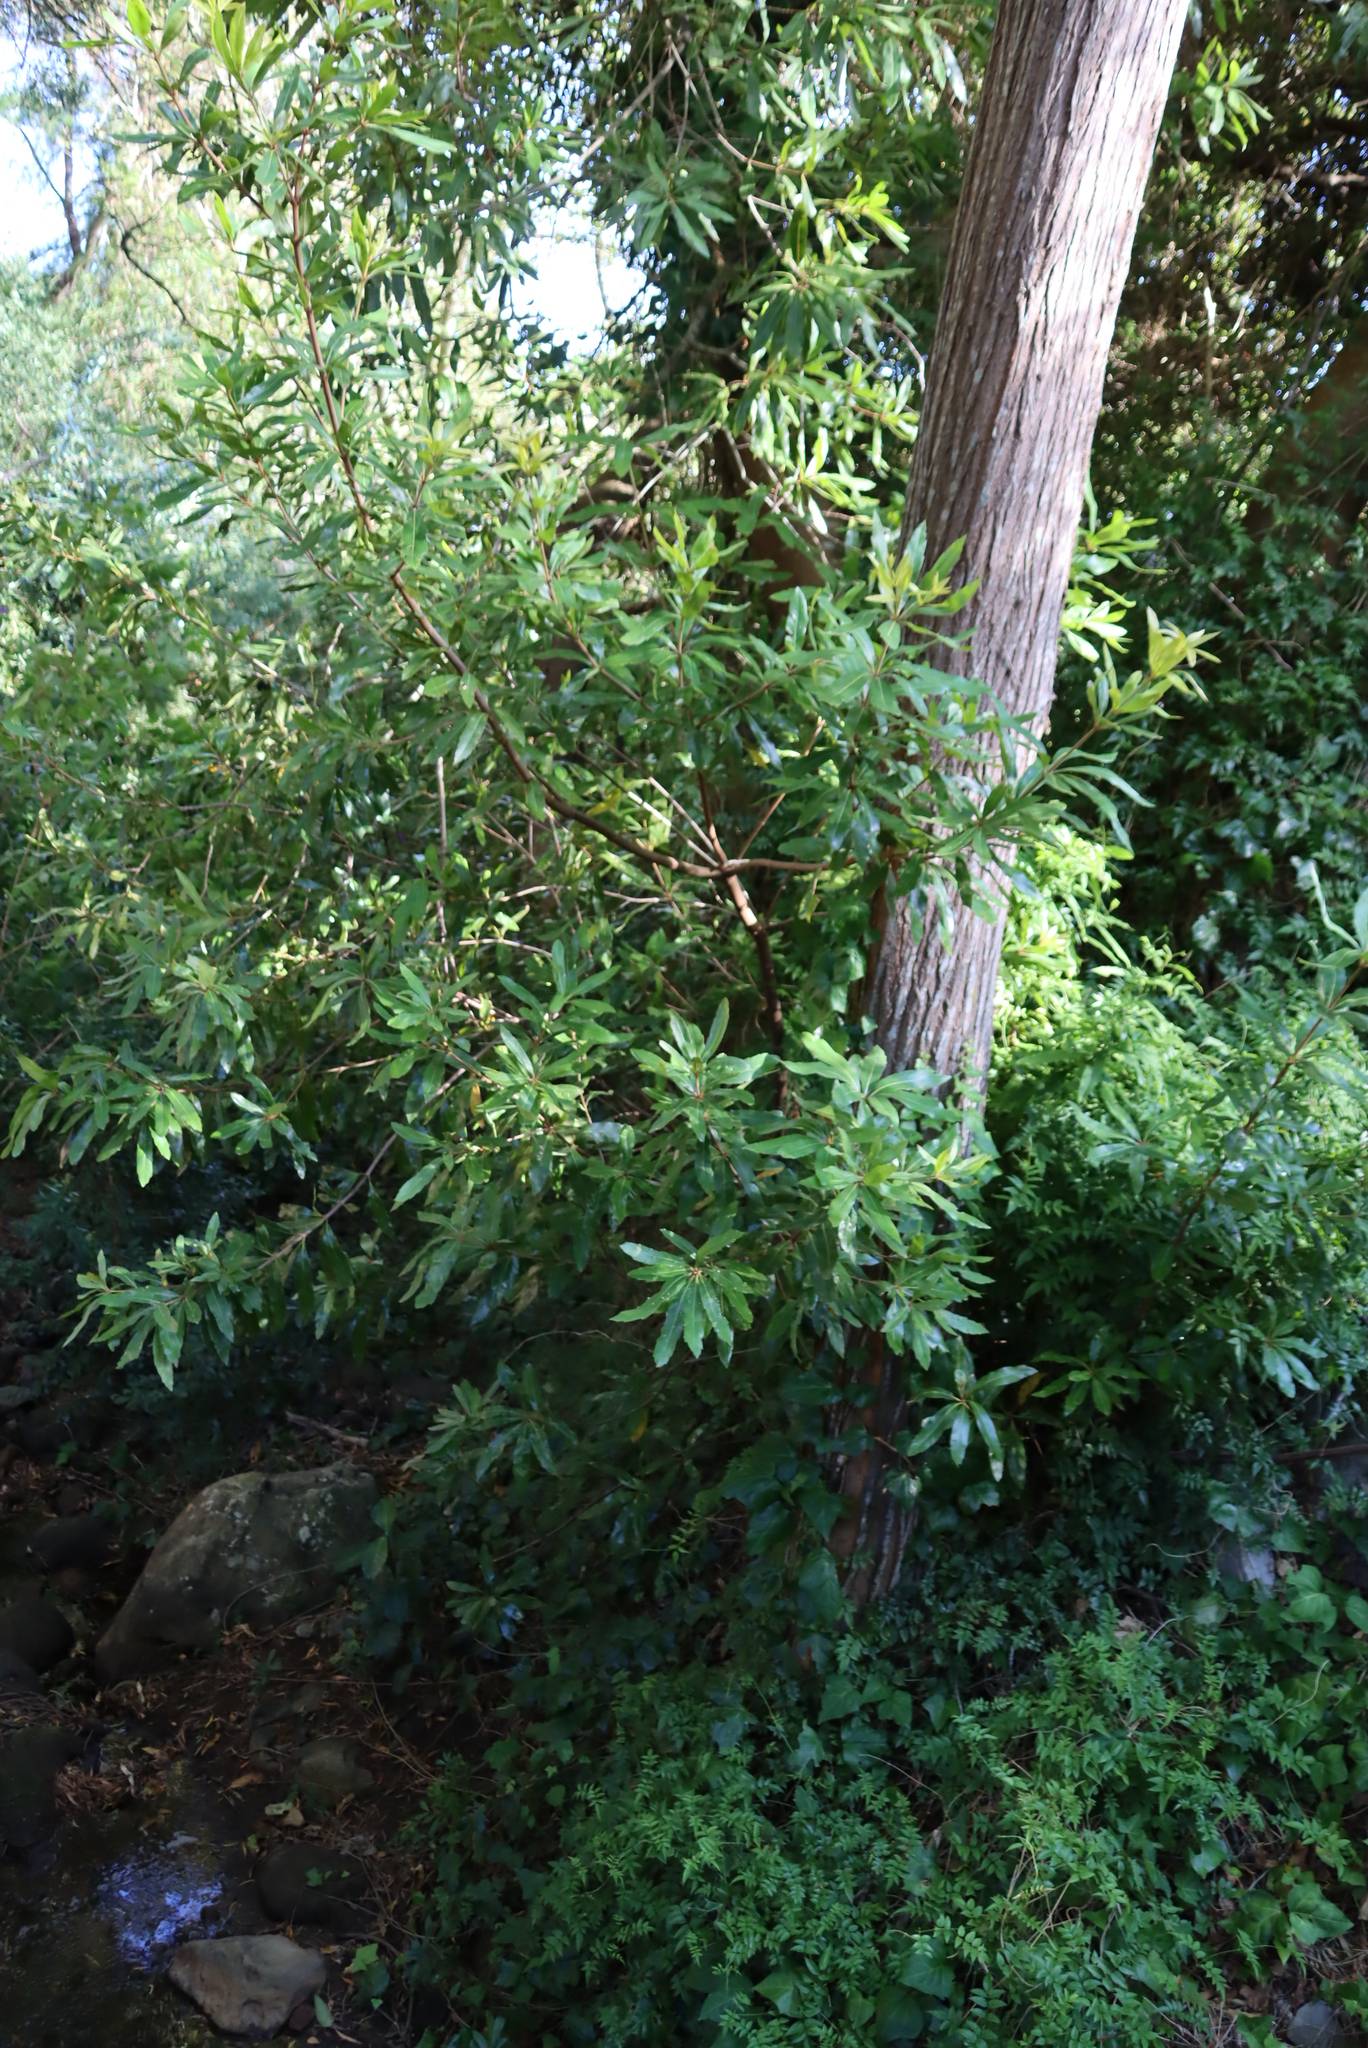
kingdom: Plantae
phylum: Tracheophyta
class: Magnoliopsida
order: Proteales
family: Proteaceae
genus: Brabejum
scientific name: Brabejum stellatifolium
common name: Wild almond
